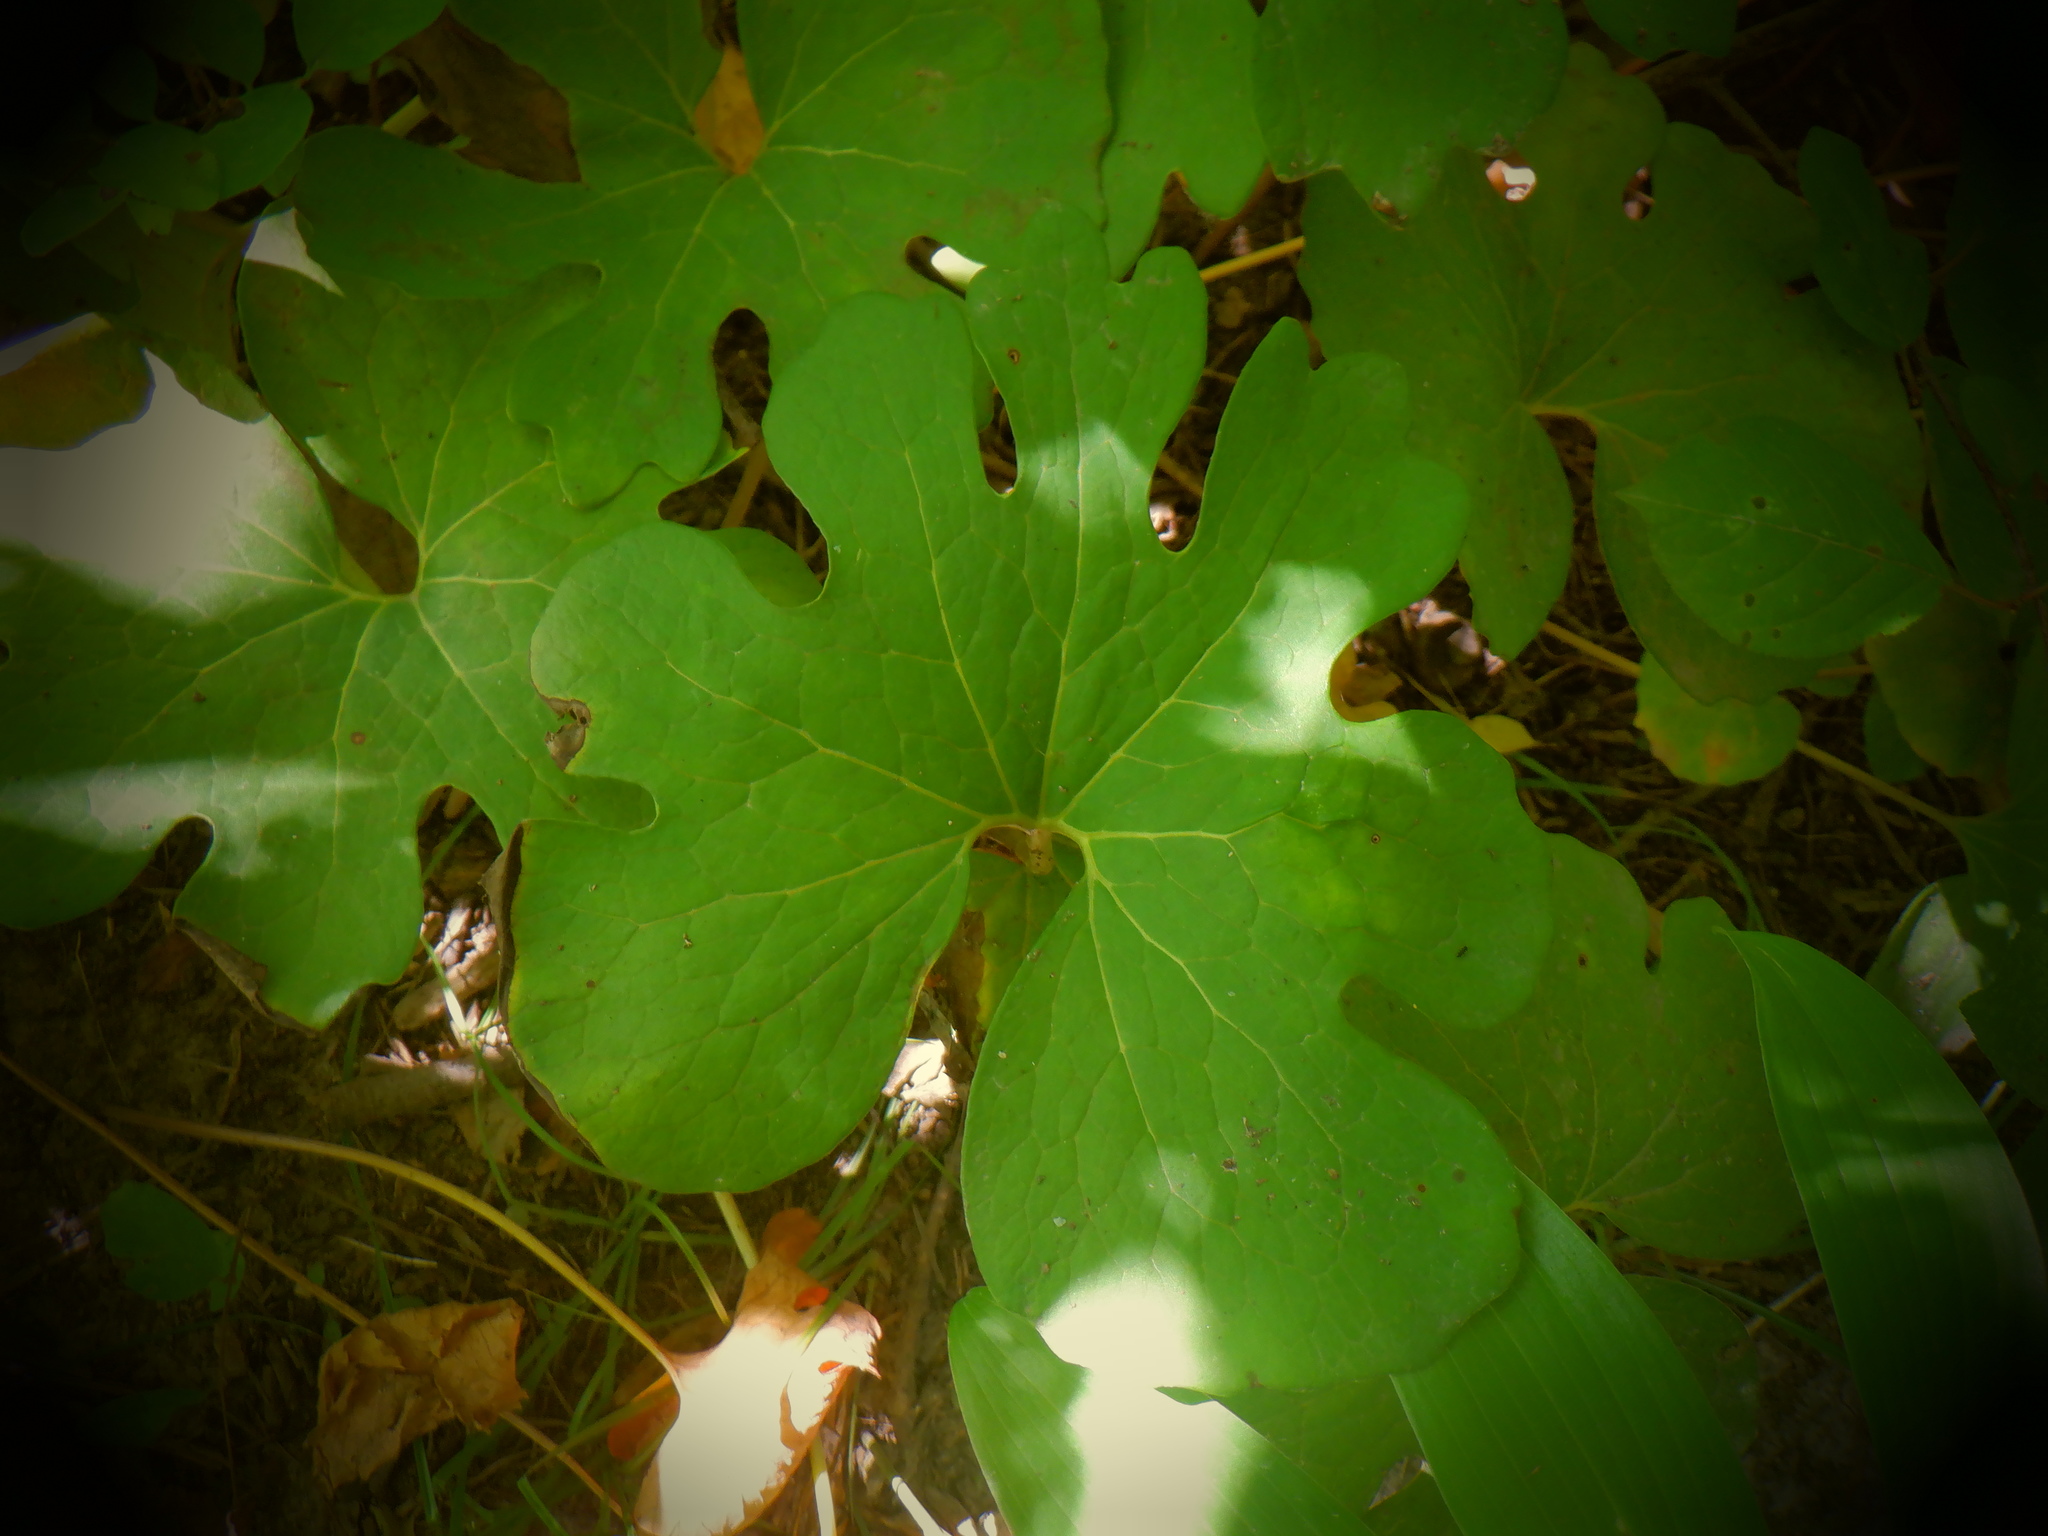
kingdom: Plantae
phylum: Tracheophyta
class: Magnoliopsida
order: Ranunculales
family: Papaveraceae
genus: Sanguinaria
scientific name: Sanguinaria canadensis
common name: Bloodroot
